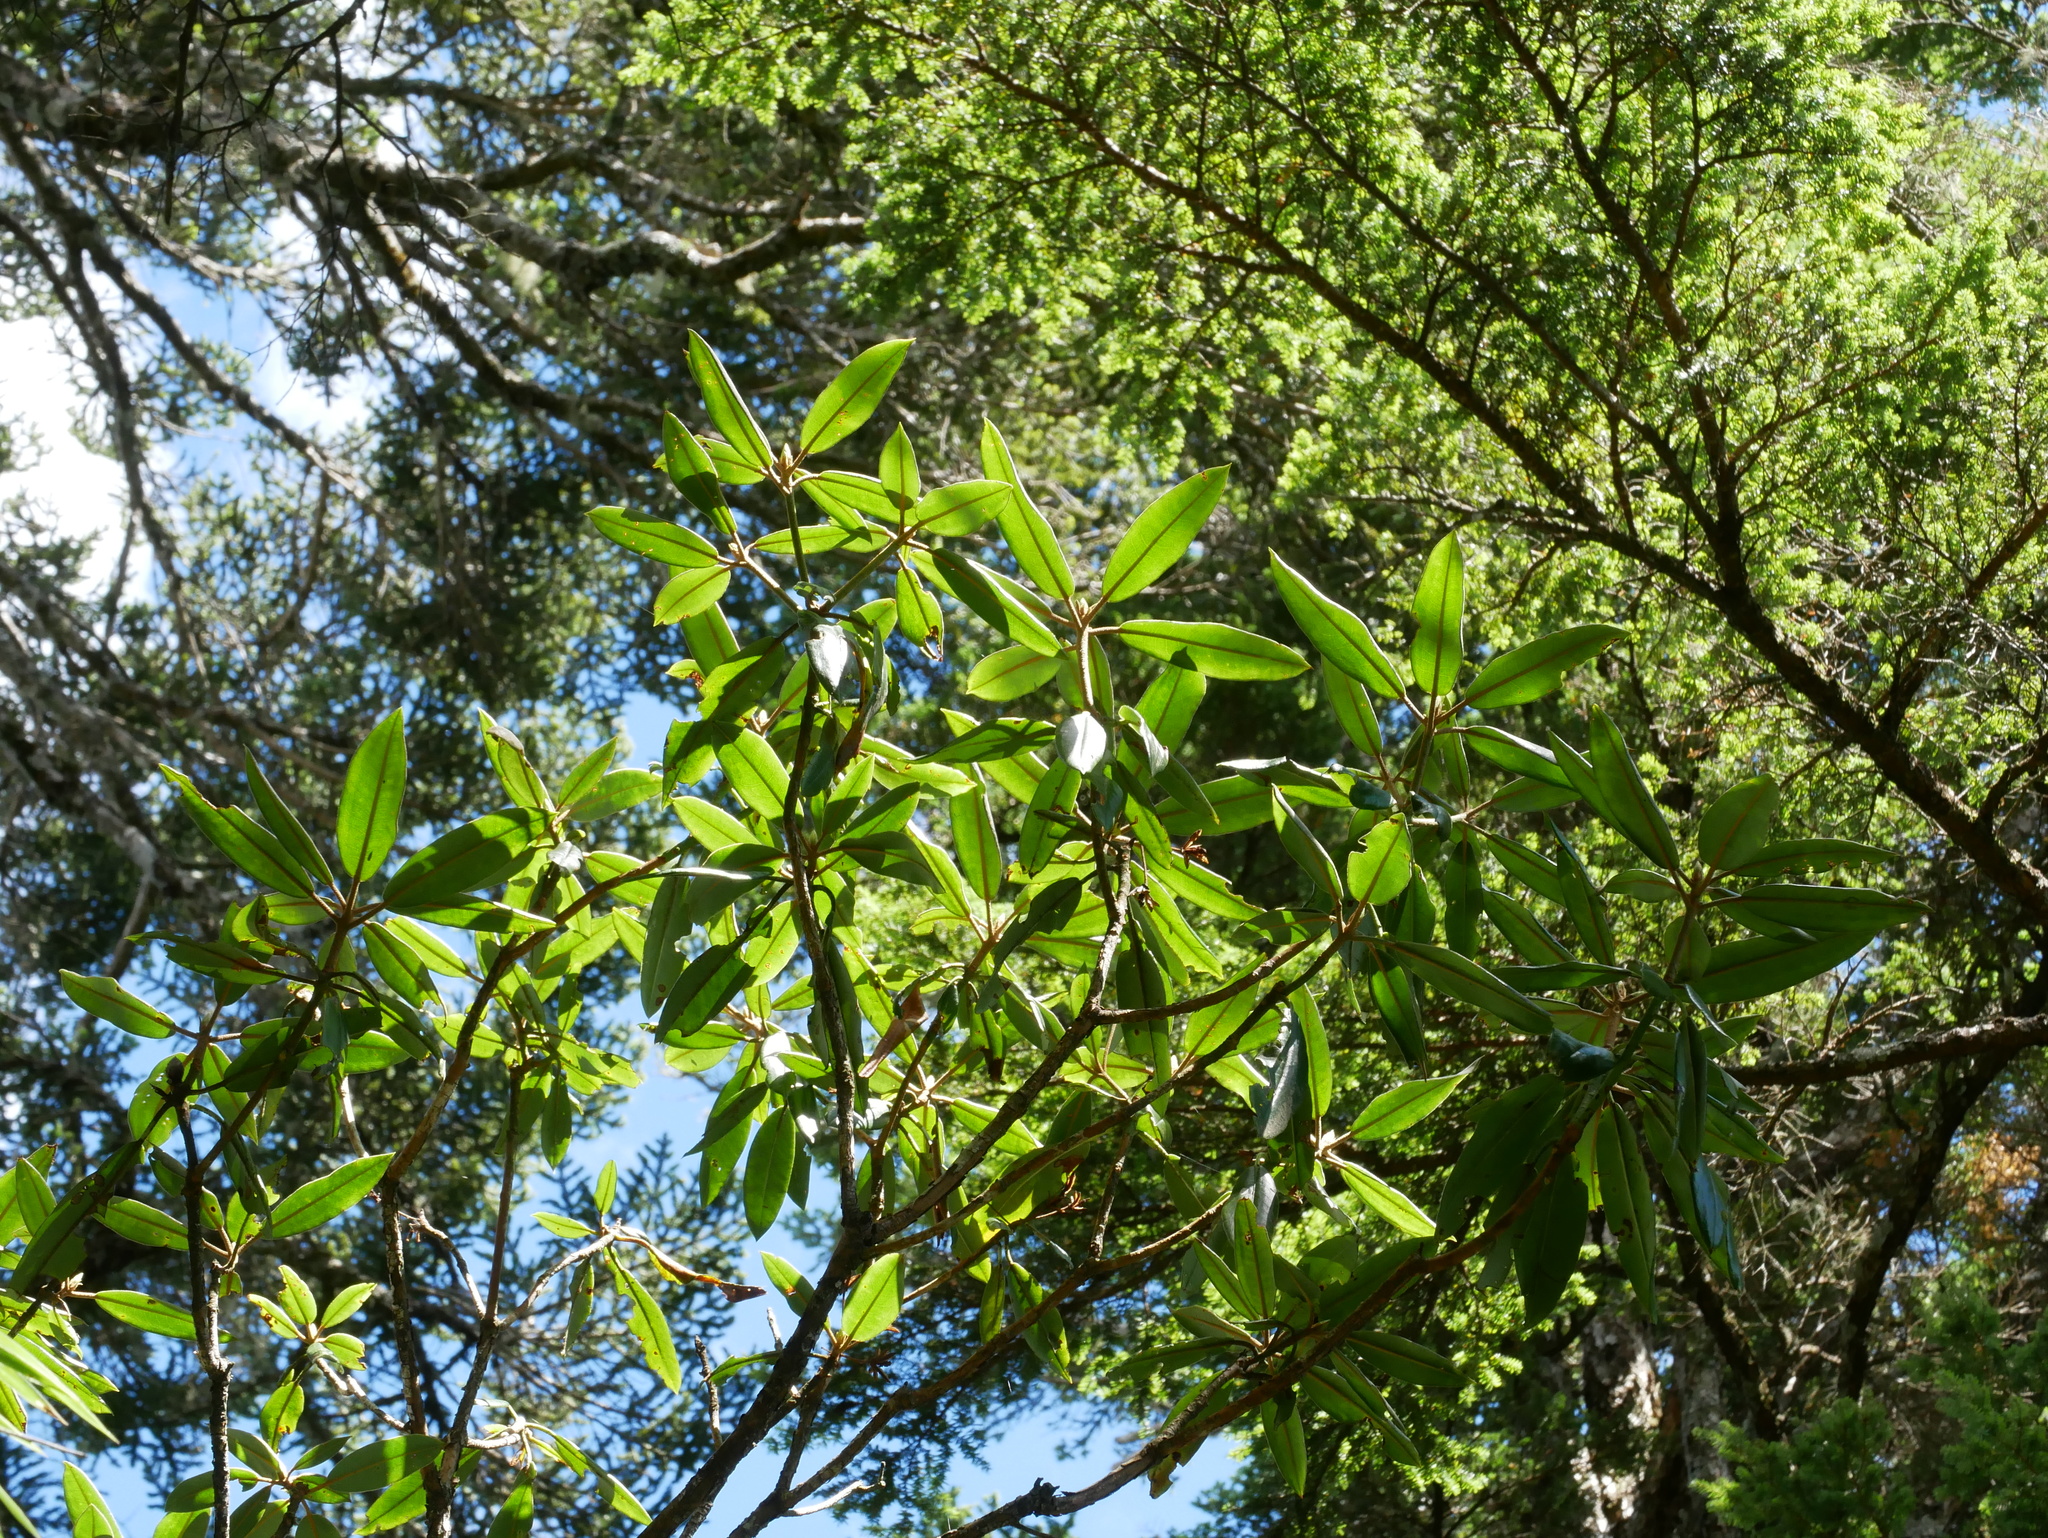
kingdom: Plantae
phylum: Tracheophyta
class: Magnoliopsida
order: Ericales
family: Ericaceae
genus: Rhododendron
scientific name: Rhododendron pseudochrysanthum
